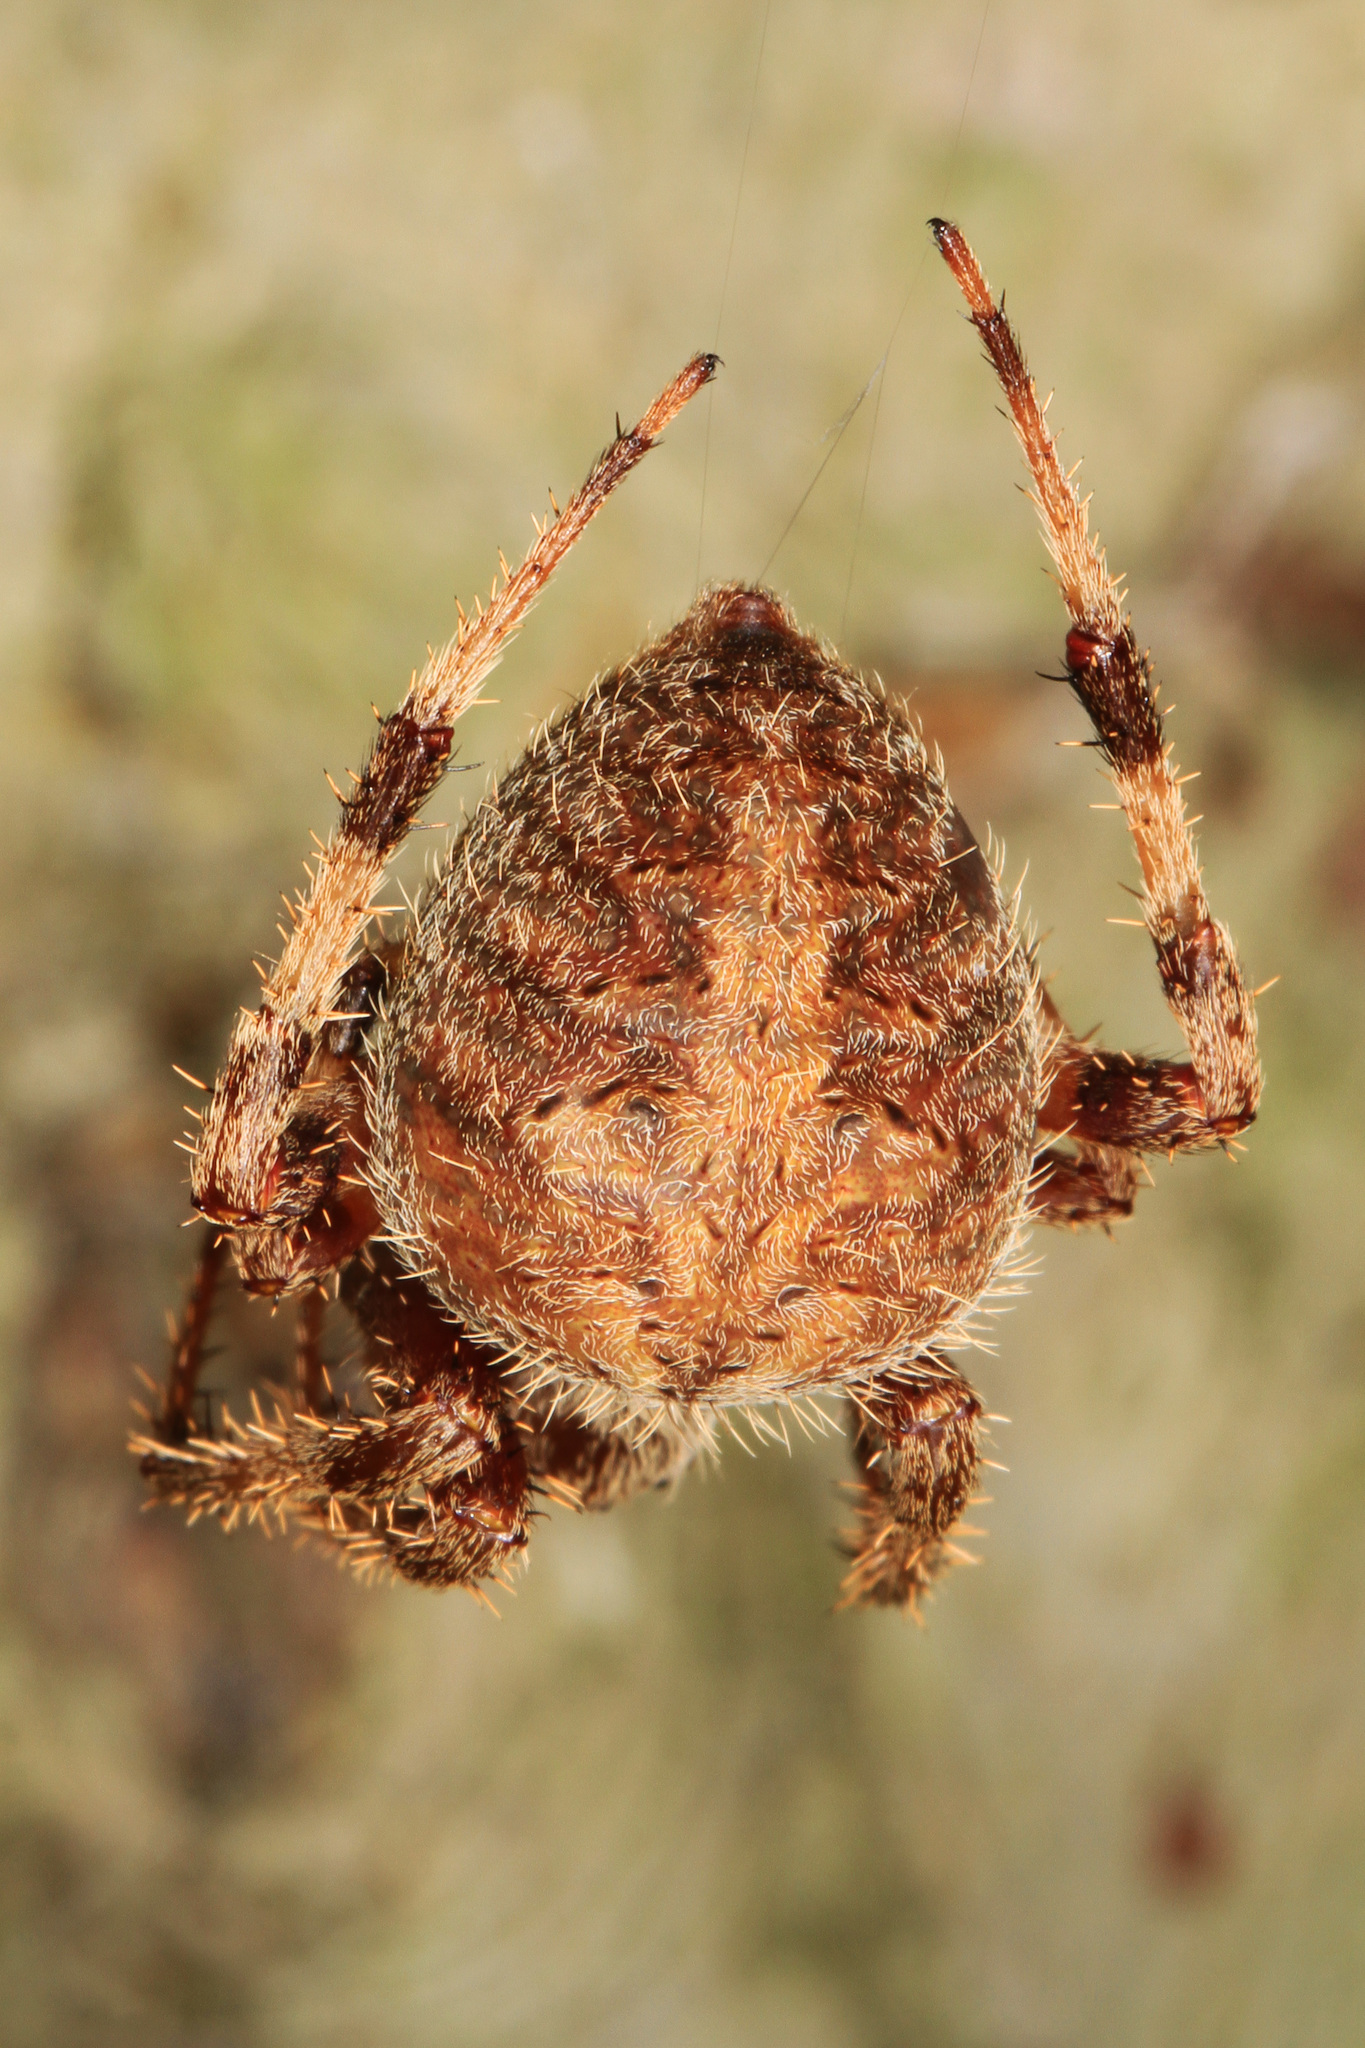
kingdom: Animalia
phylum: Arthropoda
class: Arachnida
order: Araneae
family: Araneidae
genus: Neoscona
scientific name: Neoscona crucifera
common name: Spotted orbweaver
